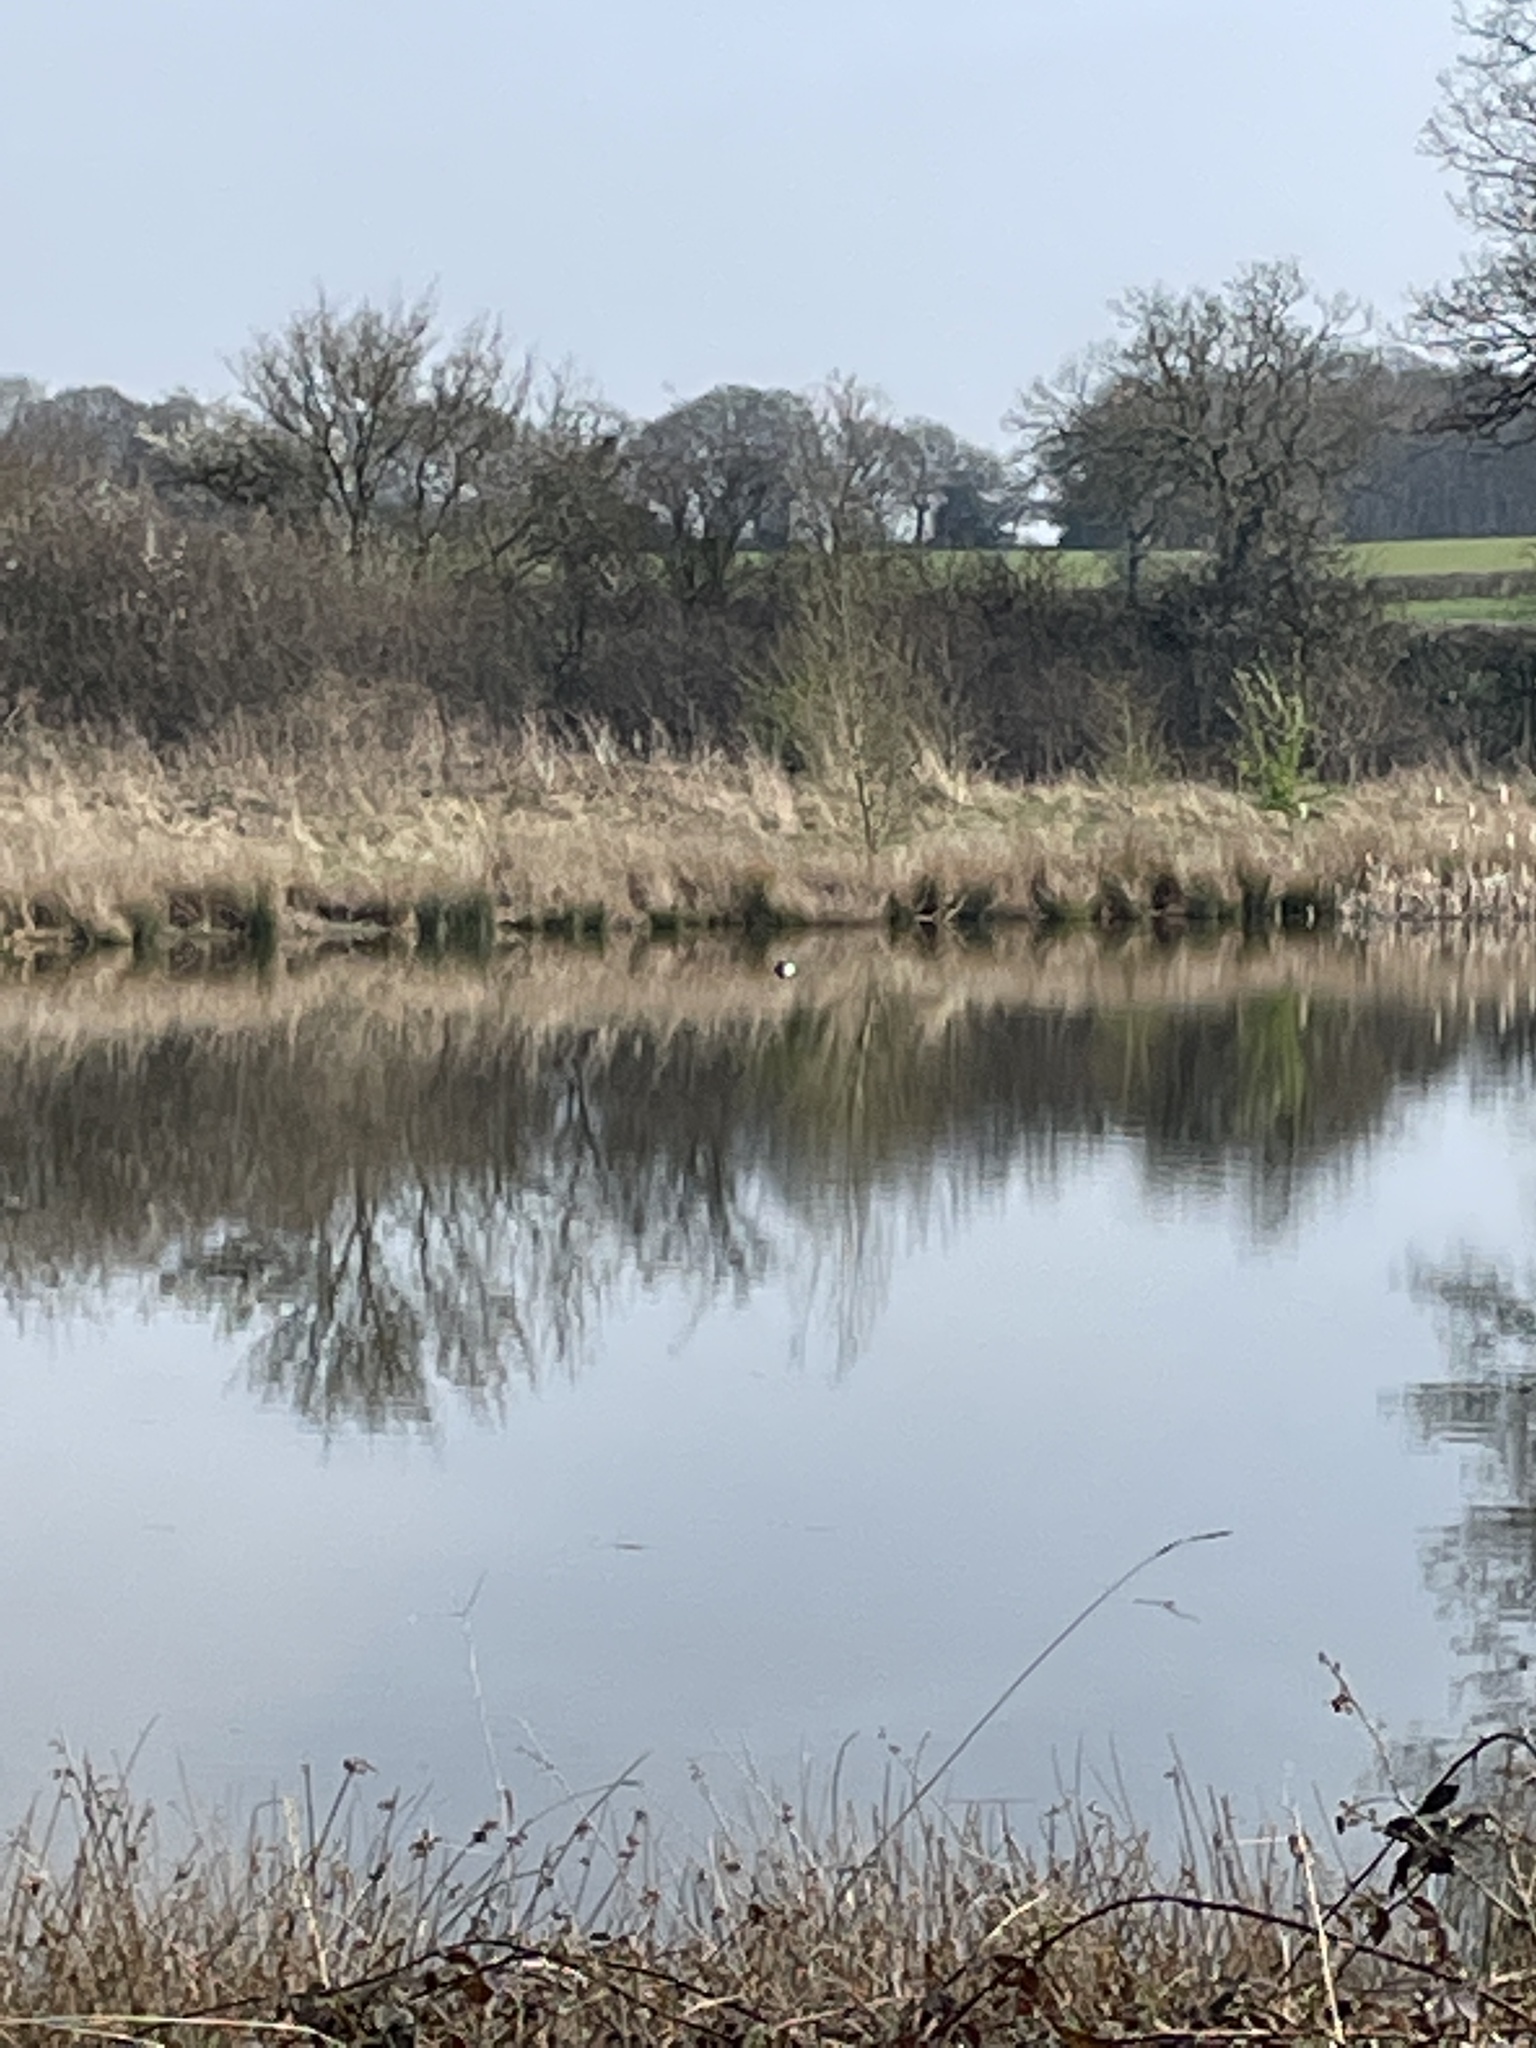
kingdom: Animalia
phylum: Chordata
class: Aves
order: Anseriformes
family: Anatidae
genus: Aythya
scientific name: Aythya fuligula
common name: Tufted duck
